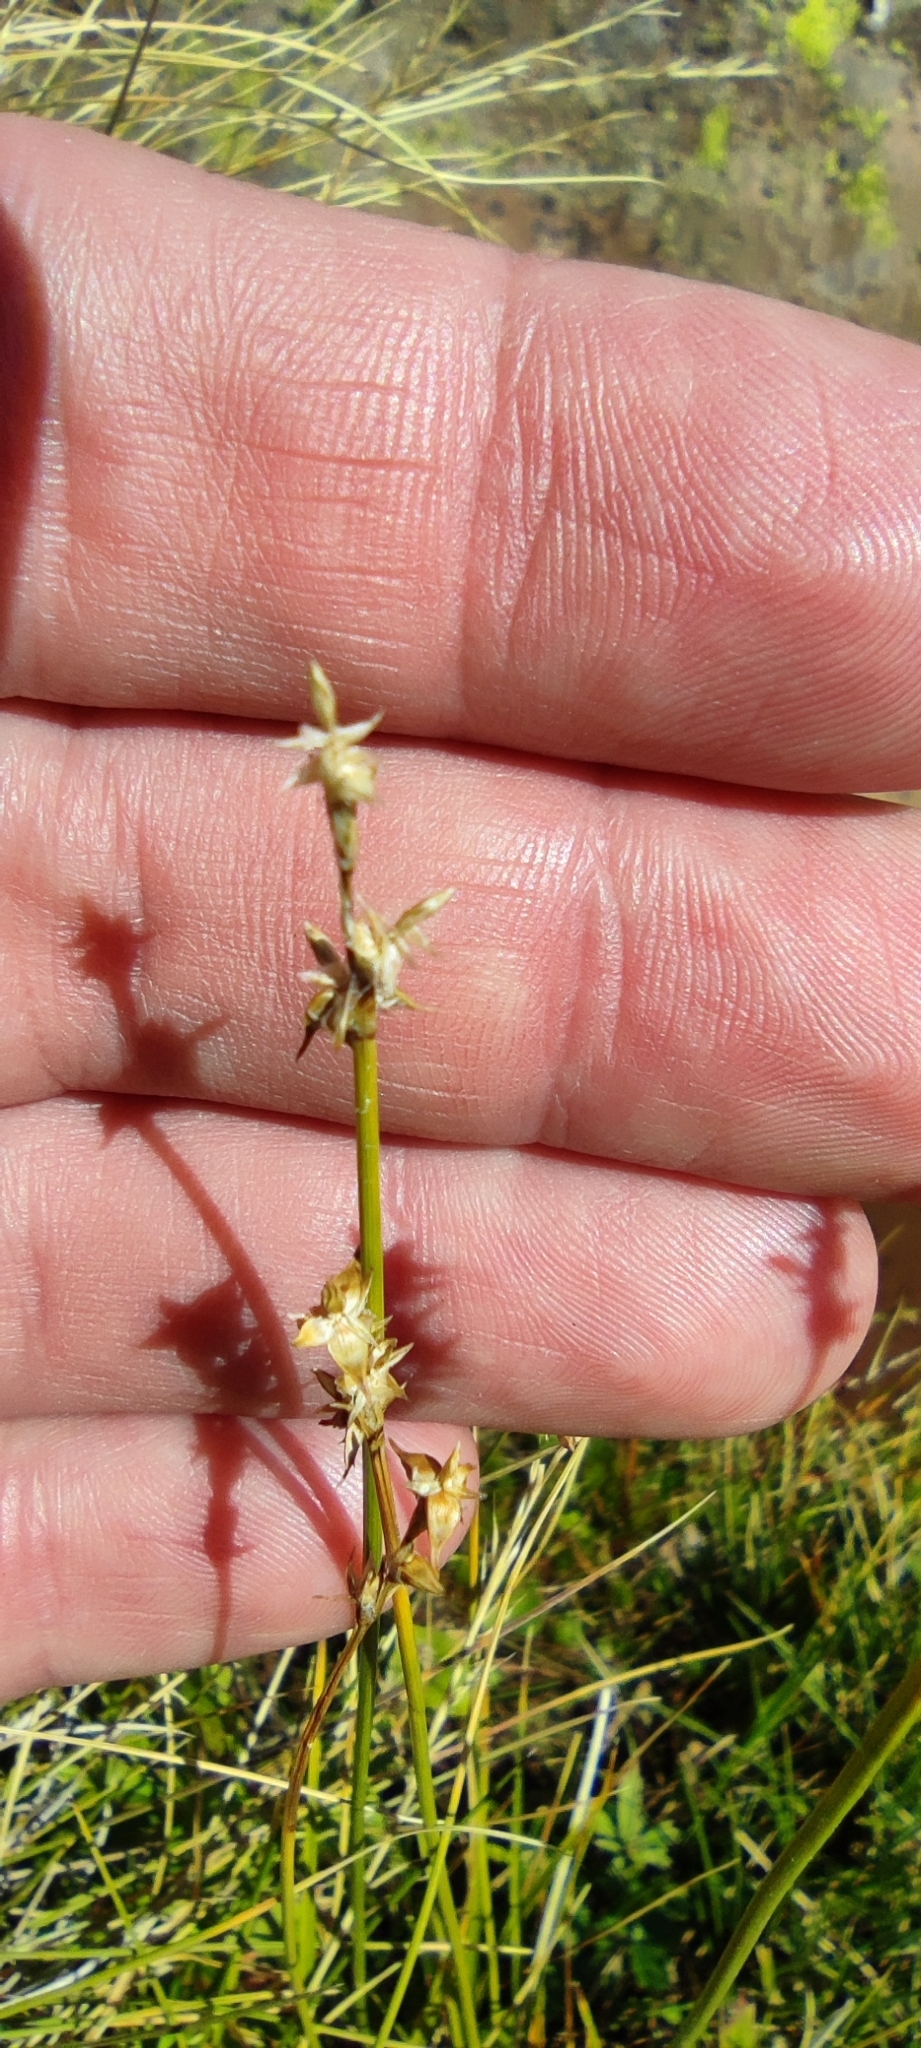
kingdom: Plantae
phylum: Tracheophyta
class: Liliopsida
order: Poales
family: Cyperaceae
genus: Carex
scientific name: Carex echinata
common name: Star sedge
